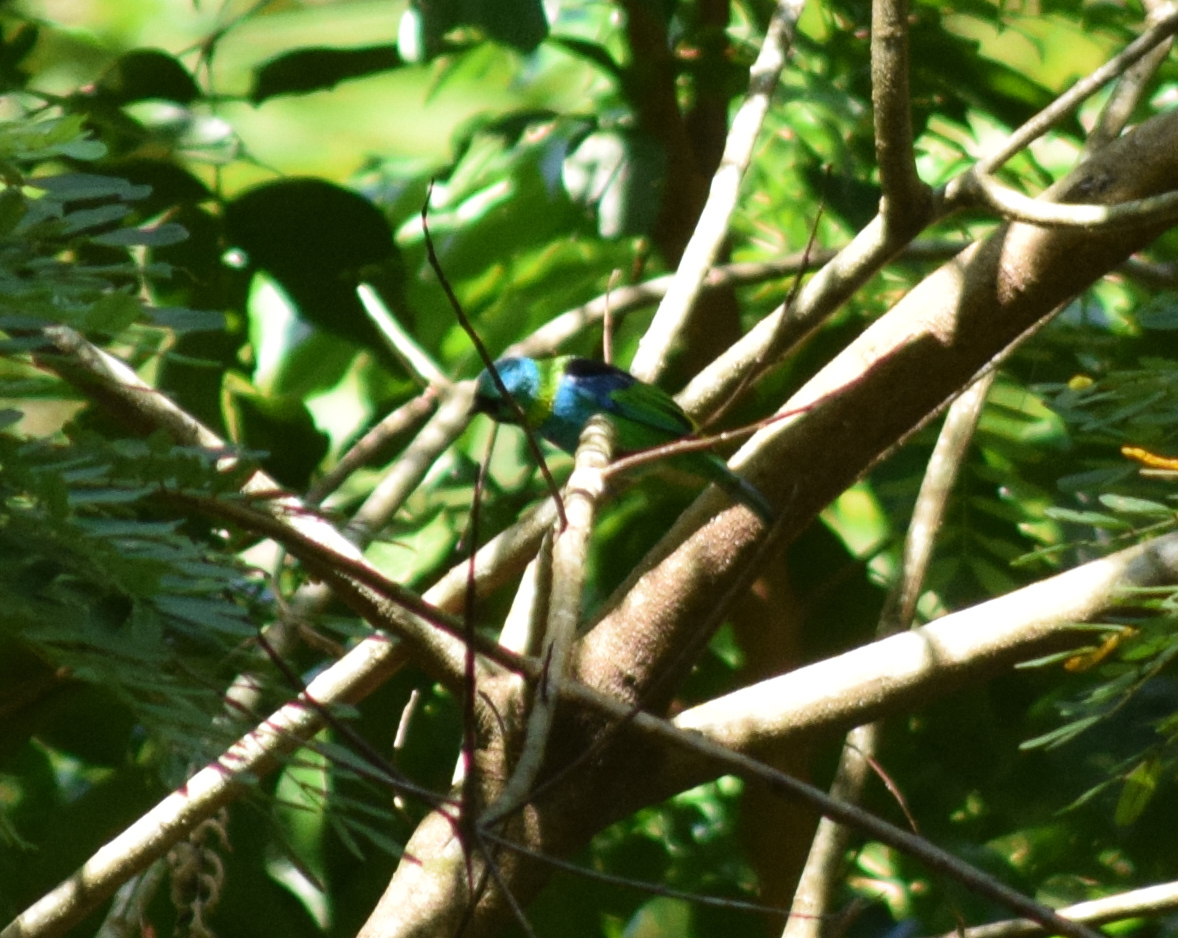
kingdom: Animalia
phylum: Chordata
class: Aves
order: Passeriformes
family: Thraupidae
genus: Tangara
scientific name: Tangara seledon
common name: Green-headed tanager
